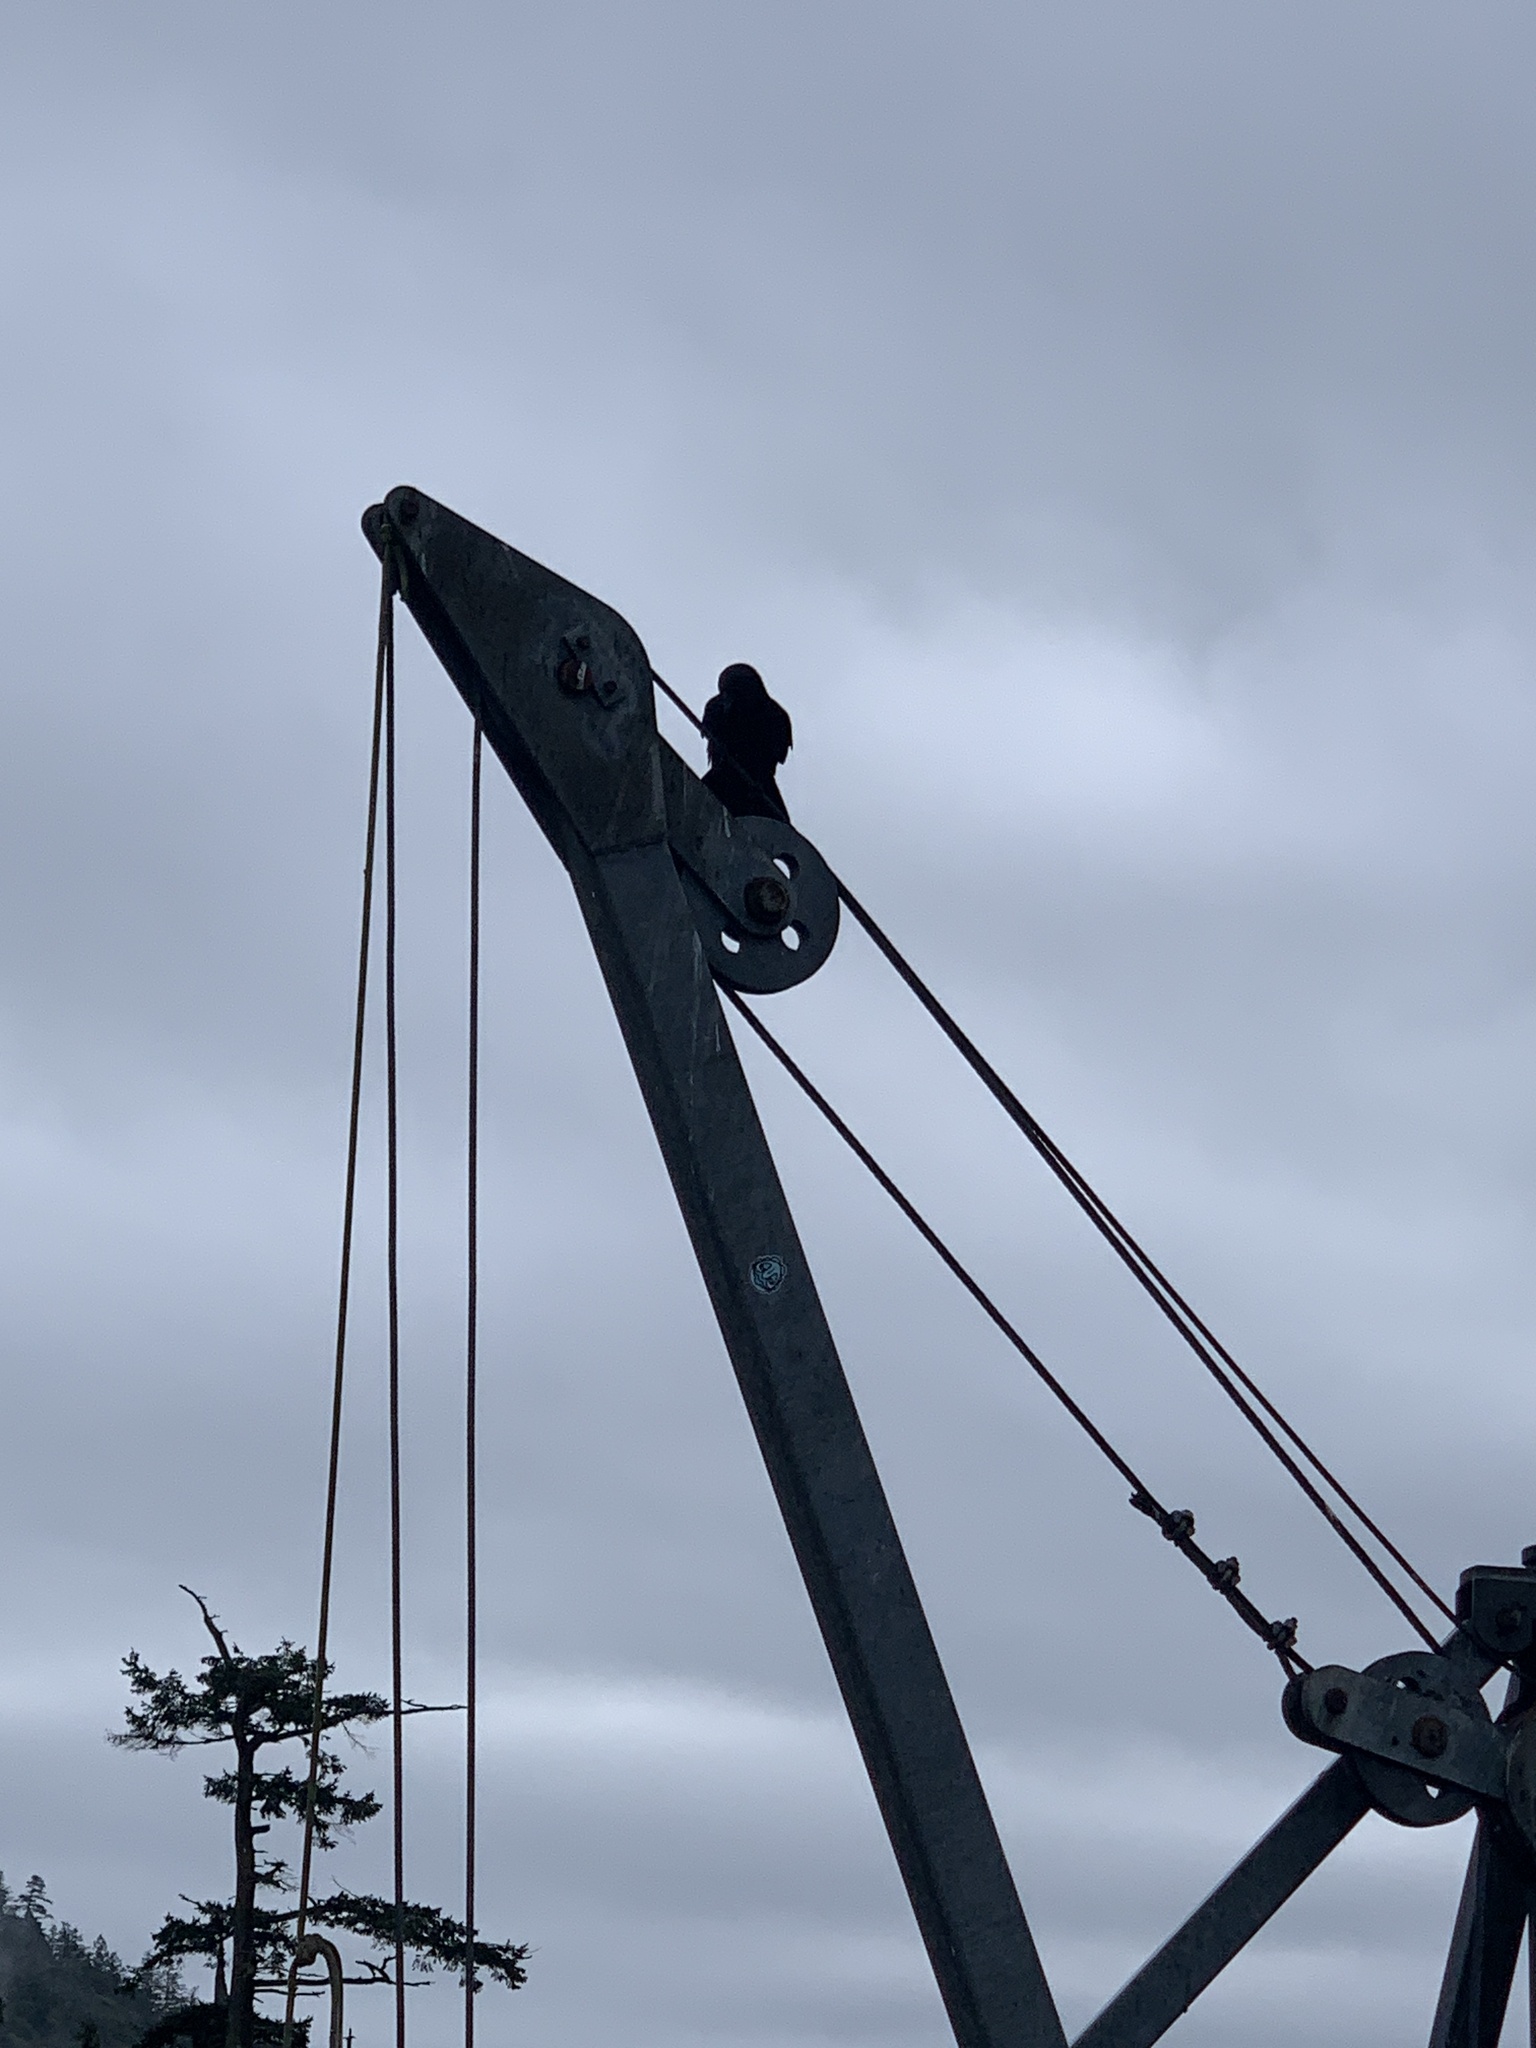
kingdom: Animalia
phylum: Chordata
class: Aves
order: Passeriformes
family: Corvidae
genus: Corvus
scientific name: Corvus brachyrhynchos
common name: American crow
